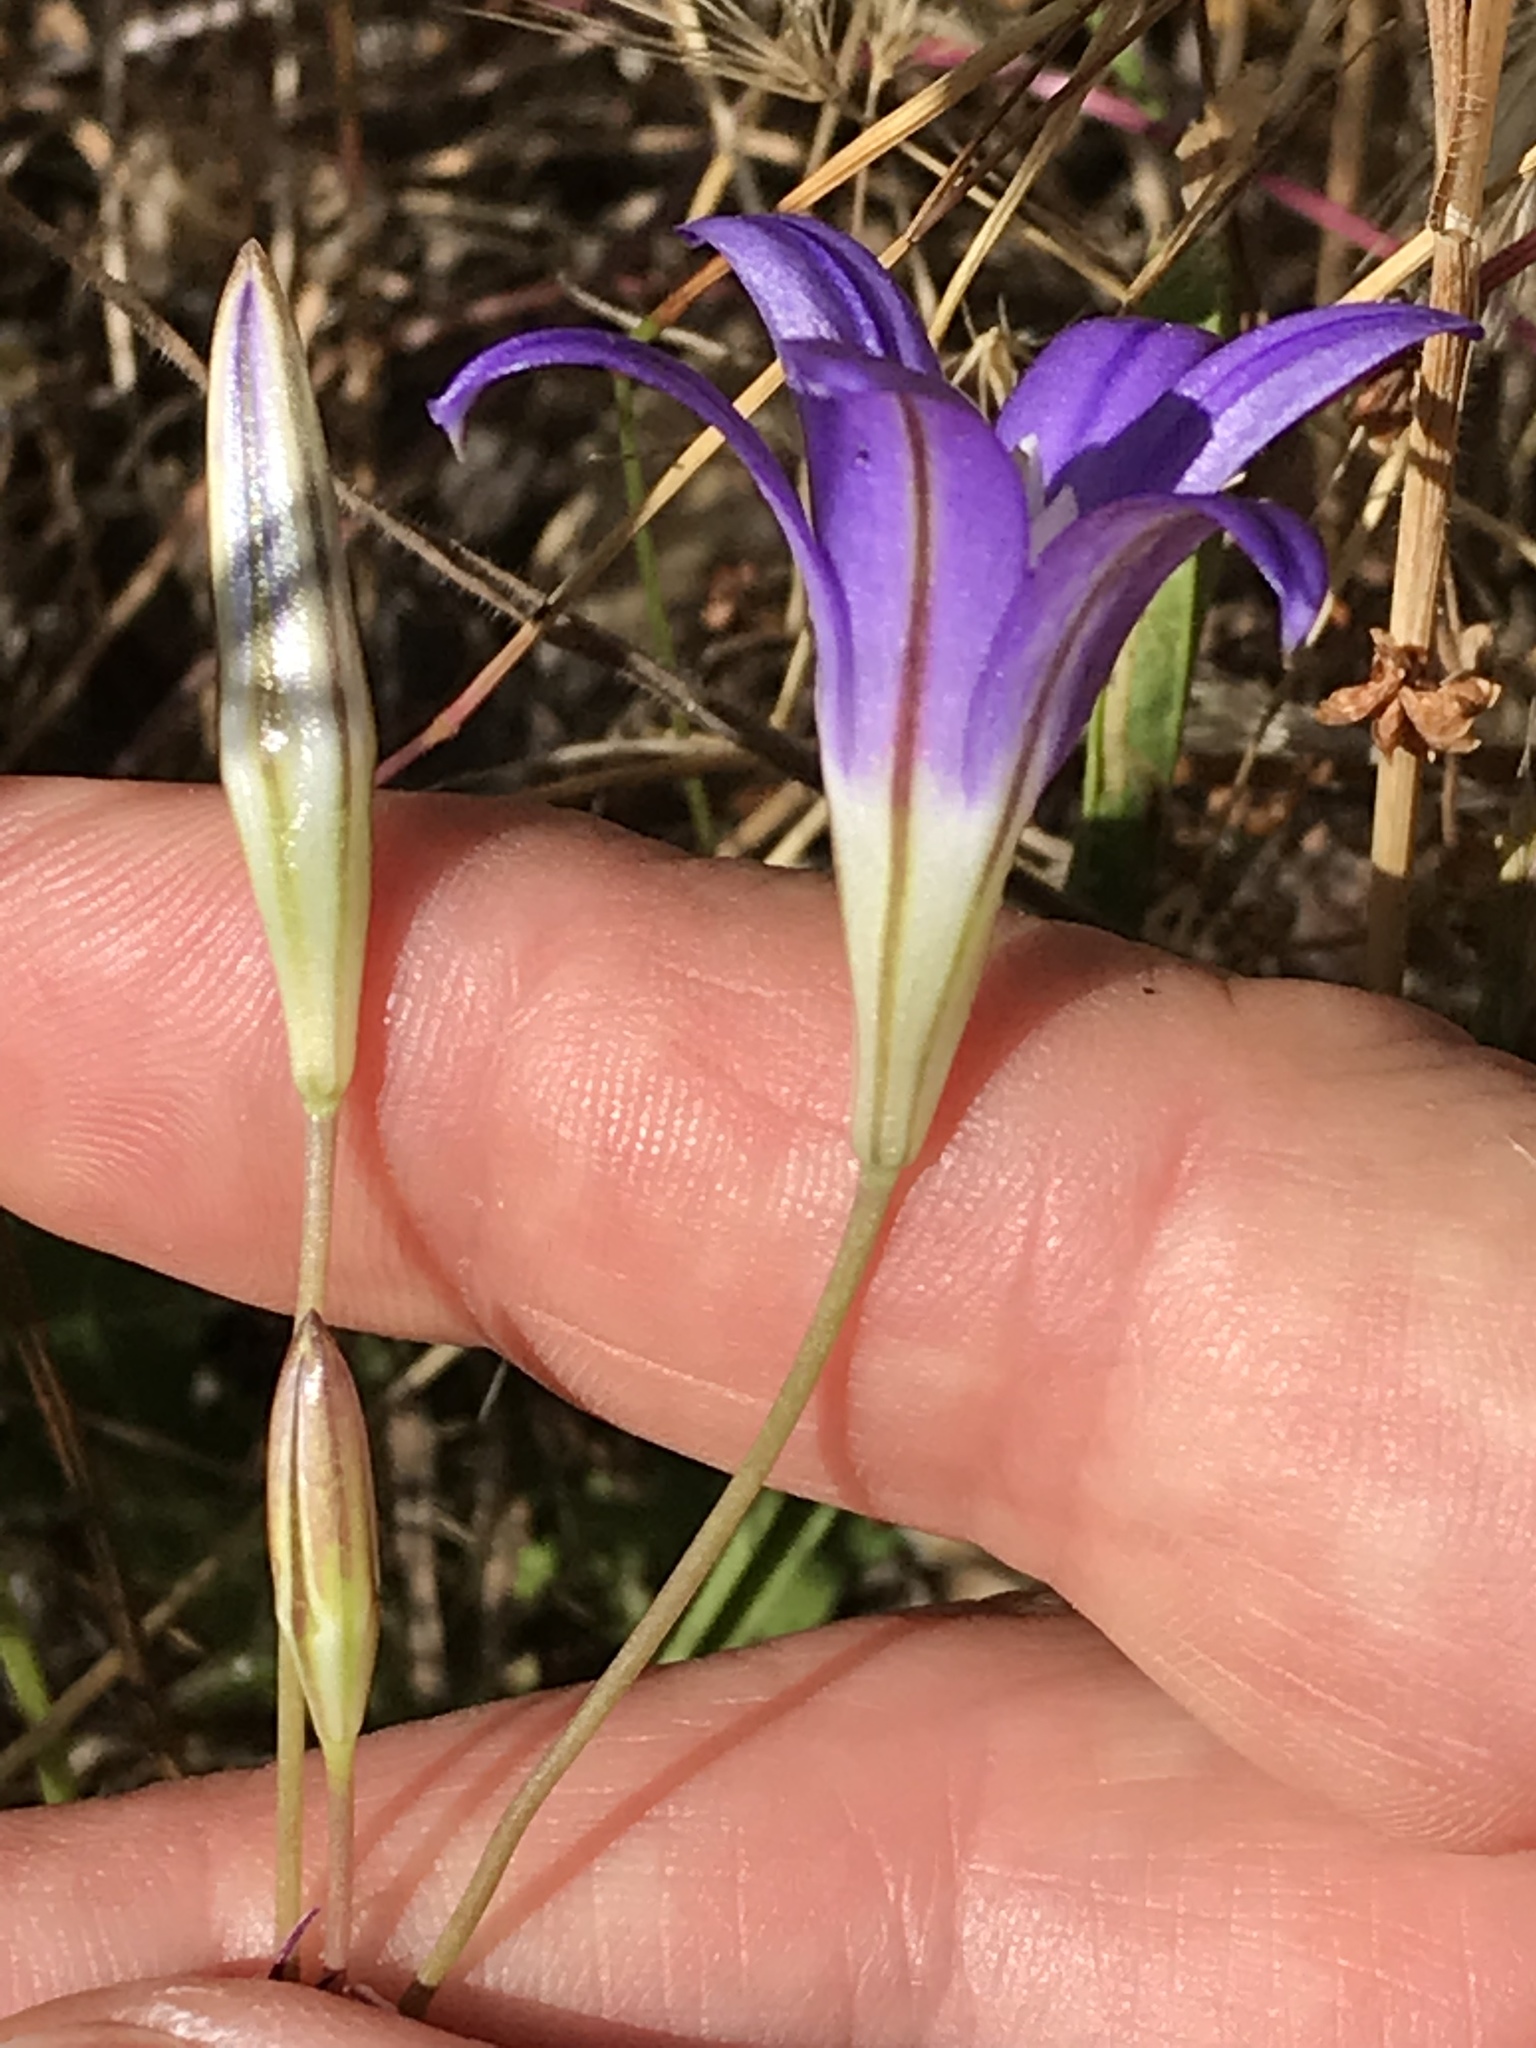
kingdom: Plantae
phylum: Tracheophyta
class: Liliopsida
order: Asparagales
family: Asparagaceae
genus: Brodiaea
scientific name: Brodiaea elegans
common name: Elegant cluster-lily
